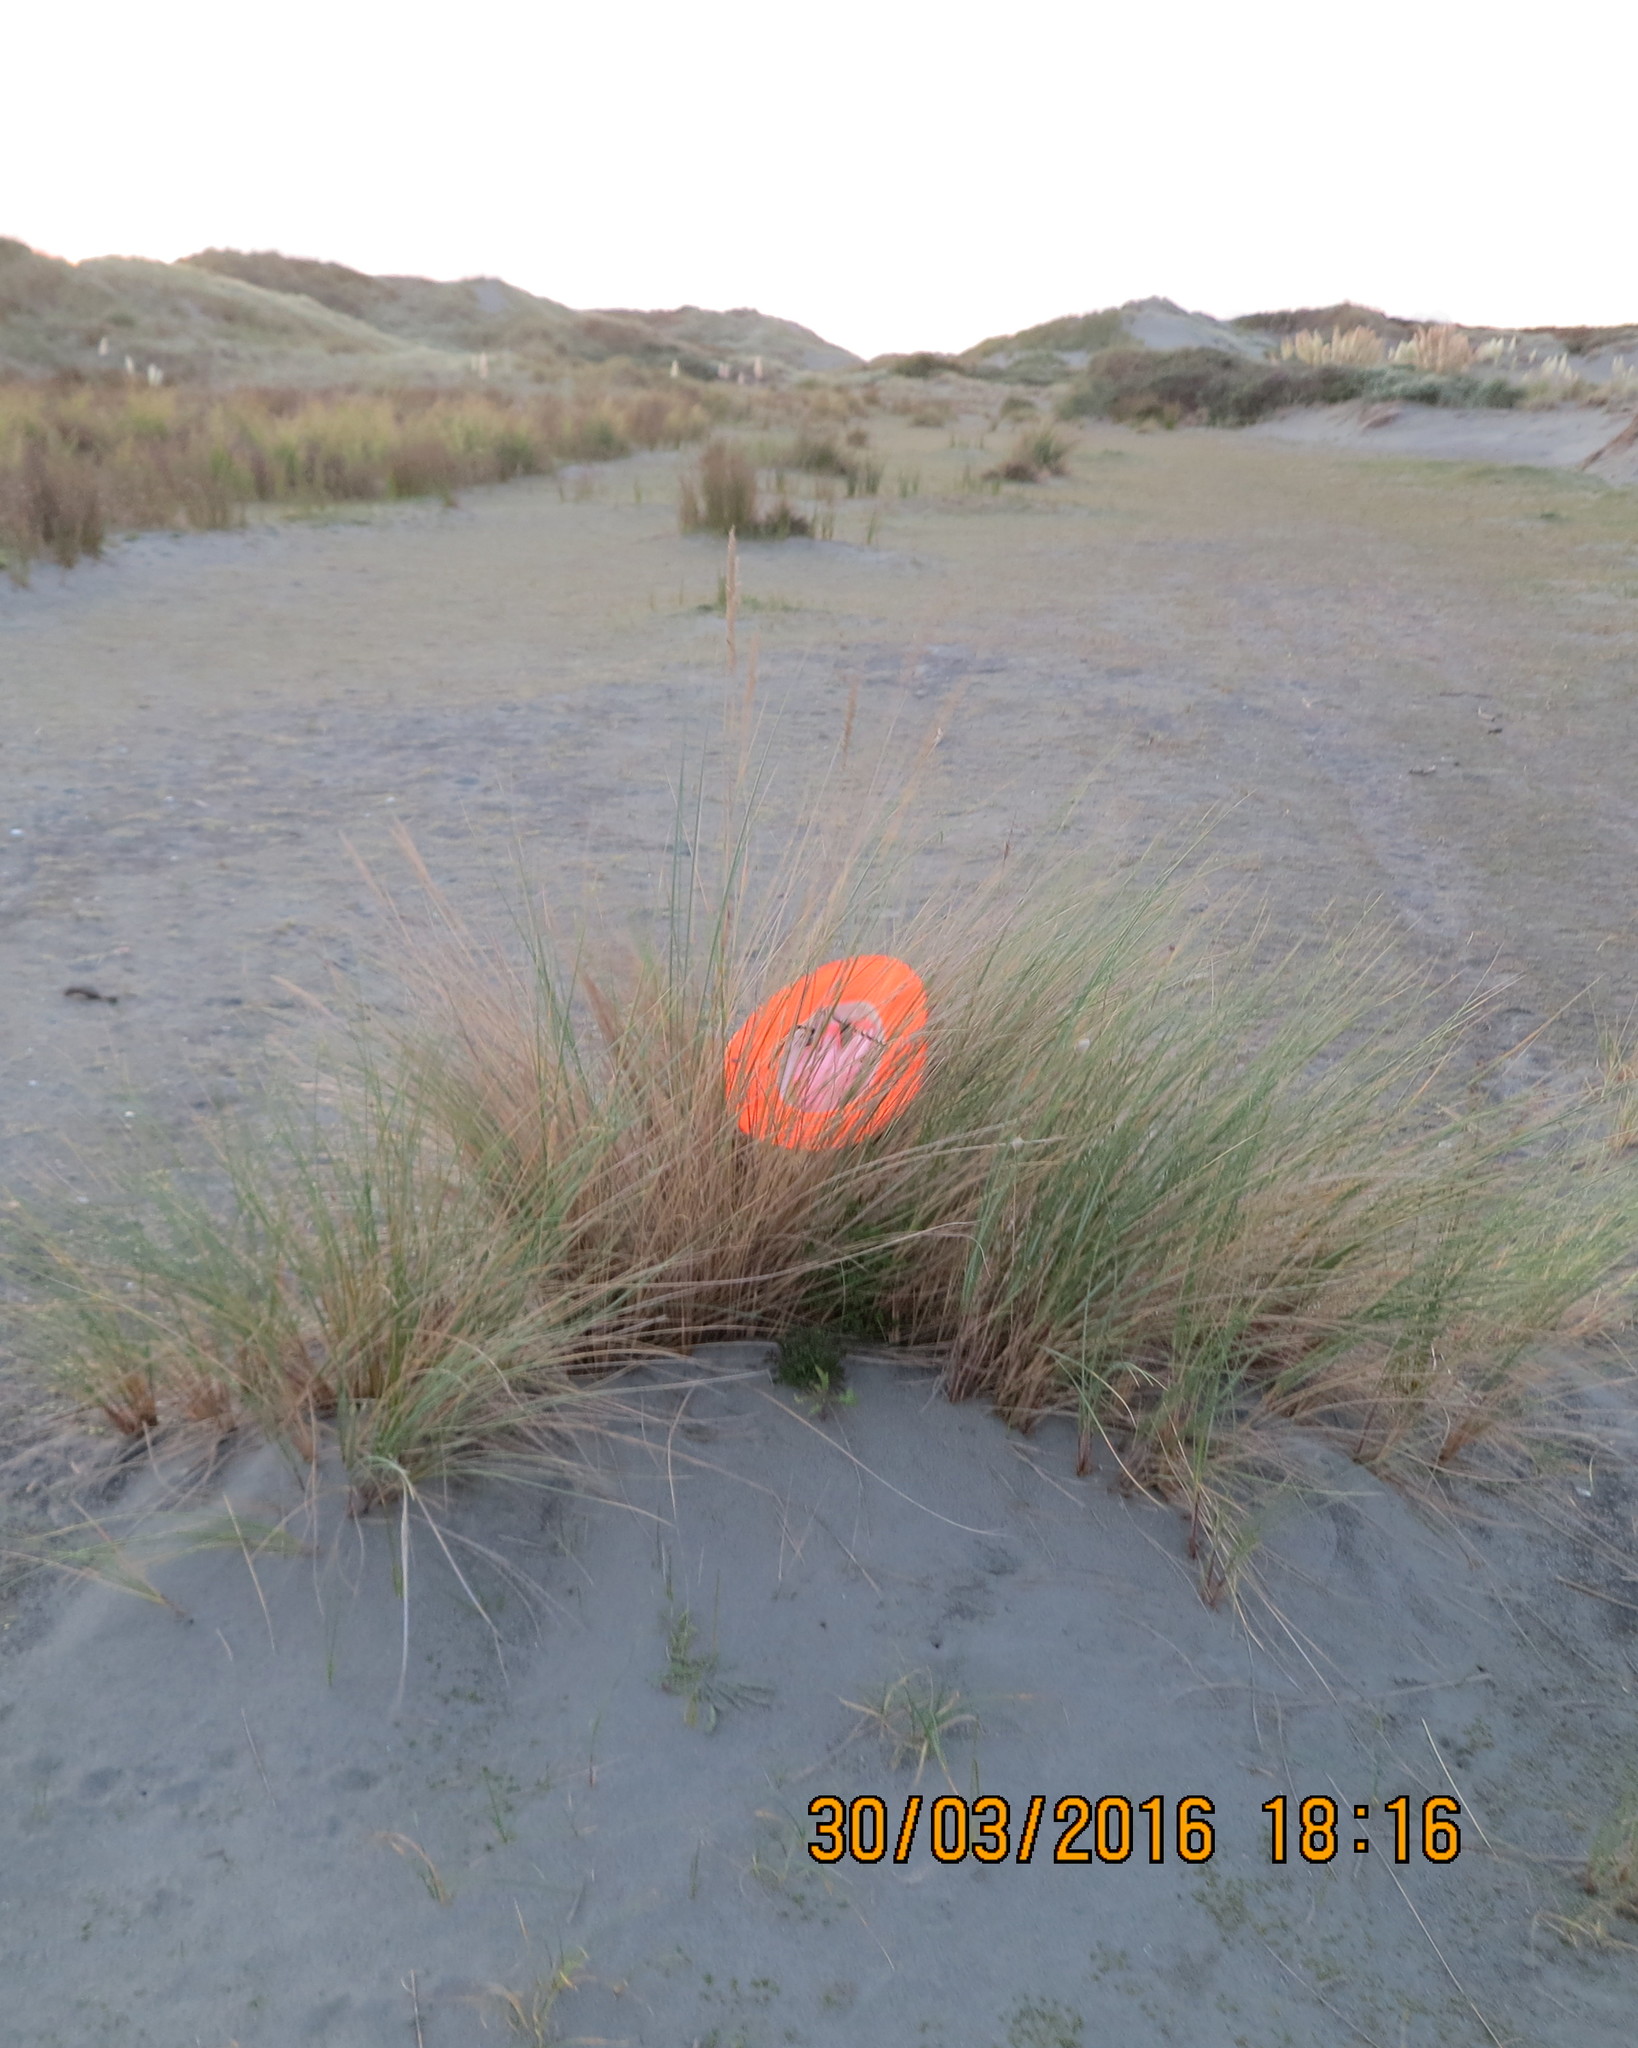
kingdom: Animalia
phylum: Arthropoda
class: Arachnida
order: Araneae
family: Thomisidae
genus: Sidymella
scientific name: Sidymella trapezia
